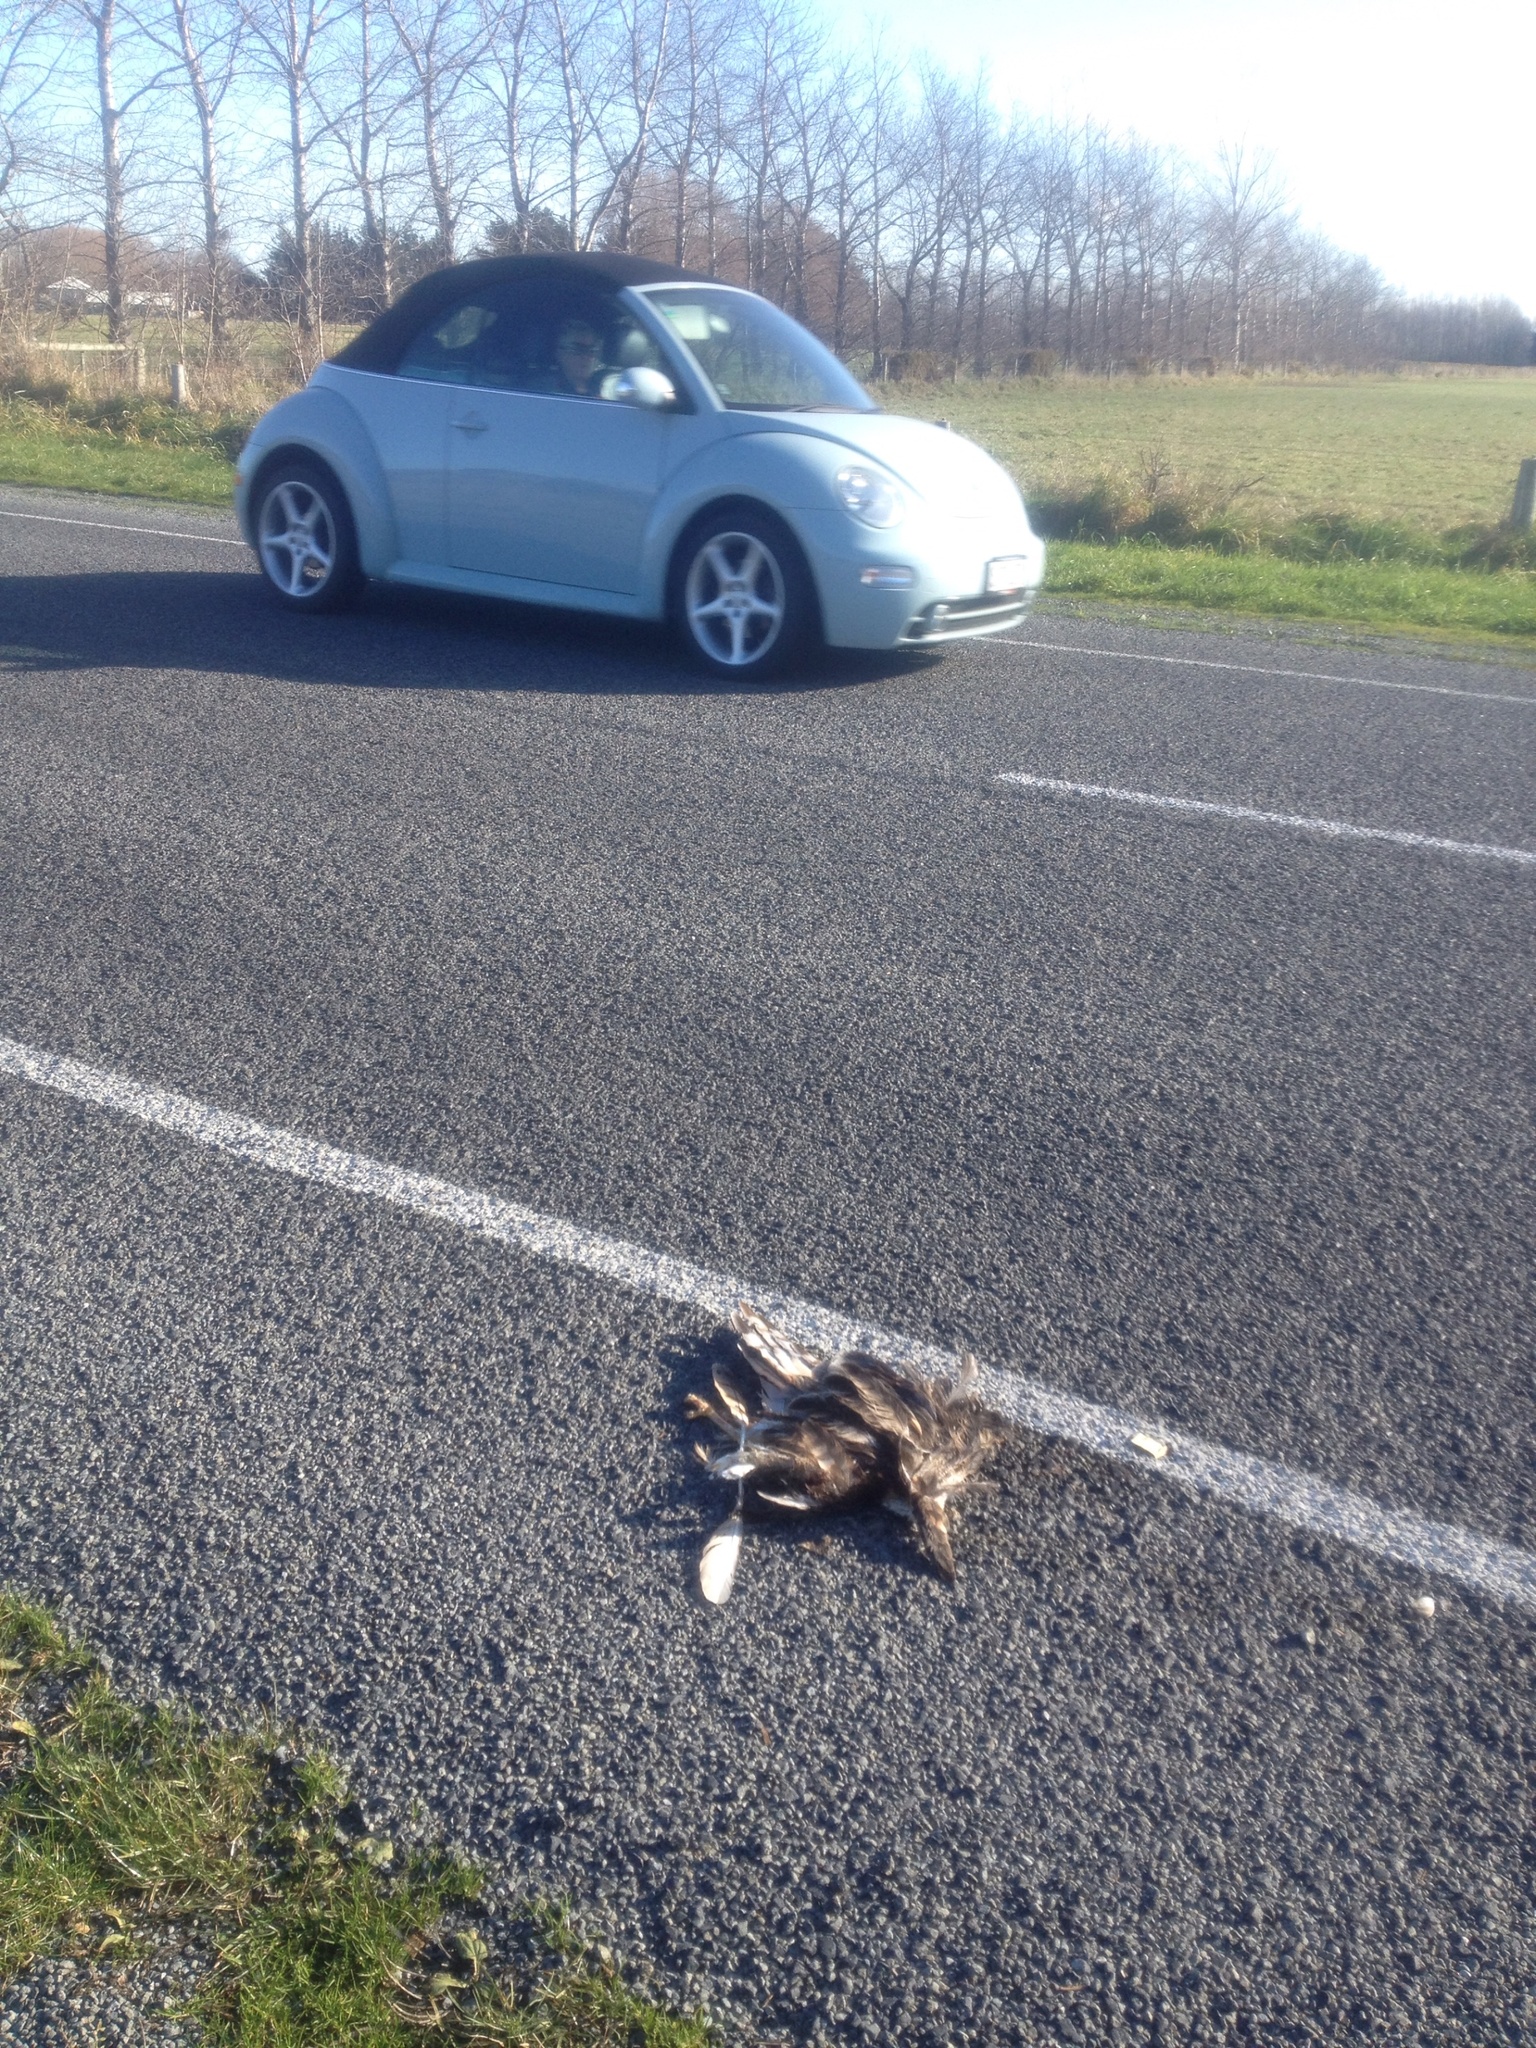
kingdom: Animalia
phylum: Chordata
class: Aves
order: Accipitriformes
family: Accipitridae
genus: Circus
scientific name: Circus approximans
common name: Swamp harrier
